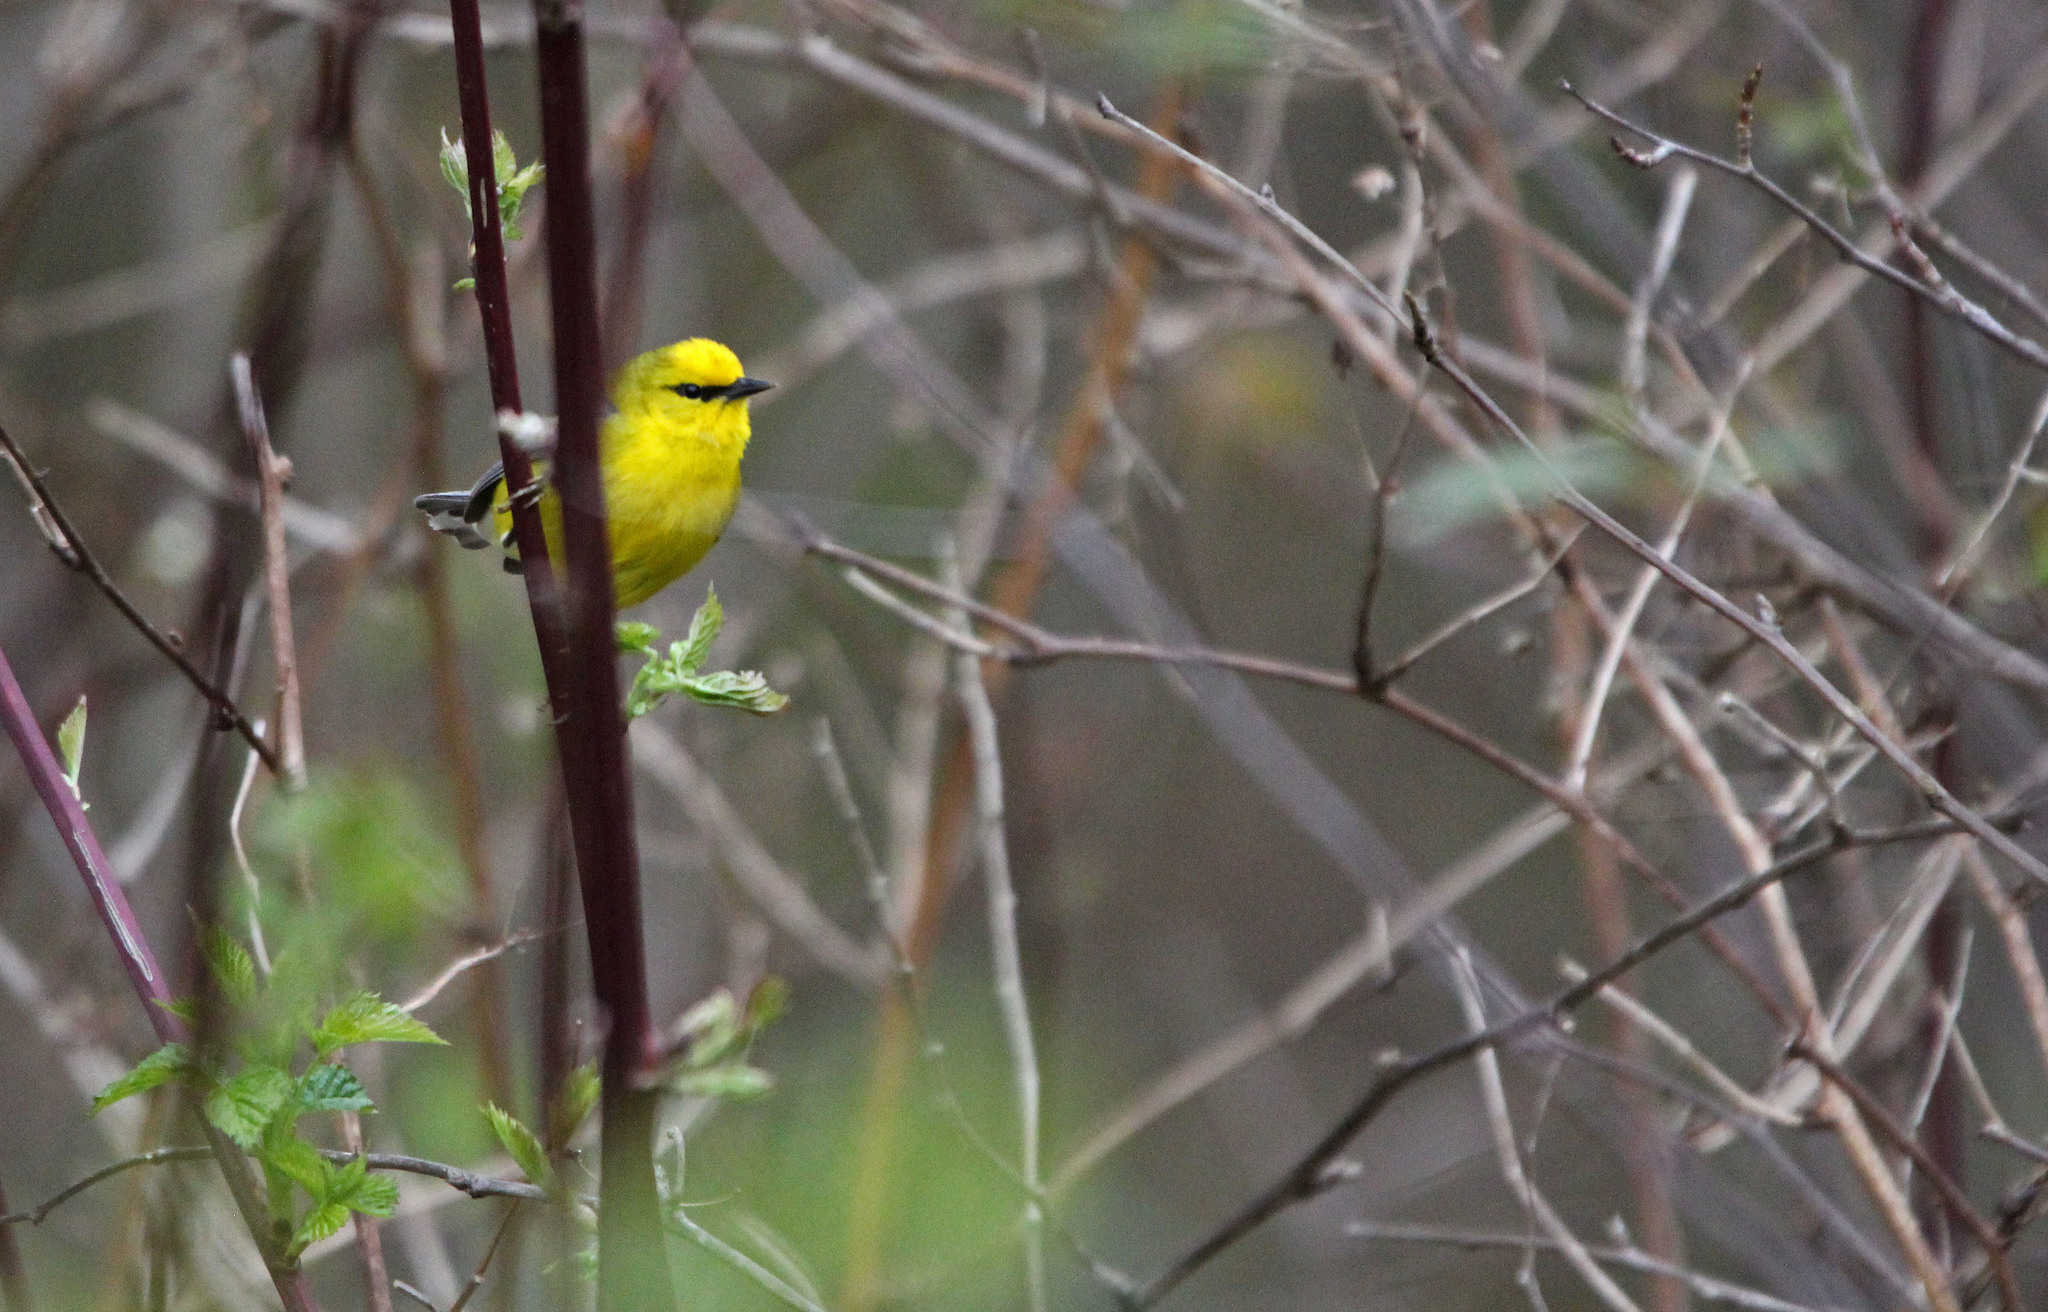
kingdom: Animalia
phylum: Chordata
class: Aves
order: Passeriformes
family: Parulidae
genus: Vermivora
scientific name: Vermivora cyanoptera
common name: Blue-winged warbler
